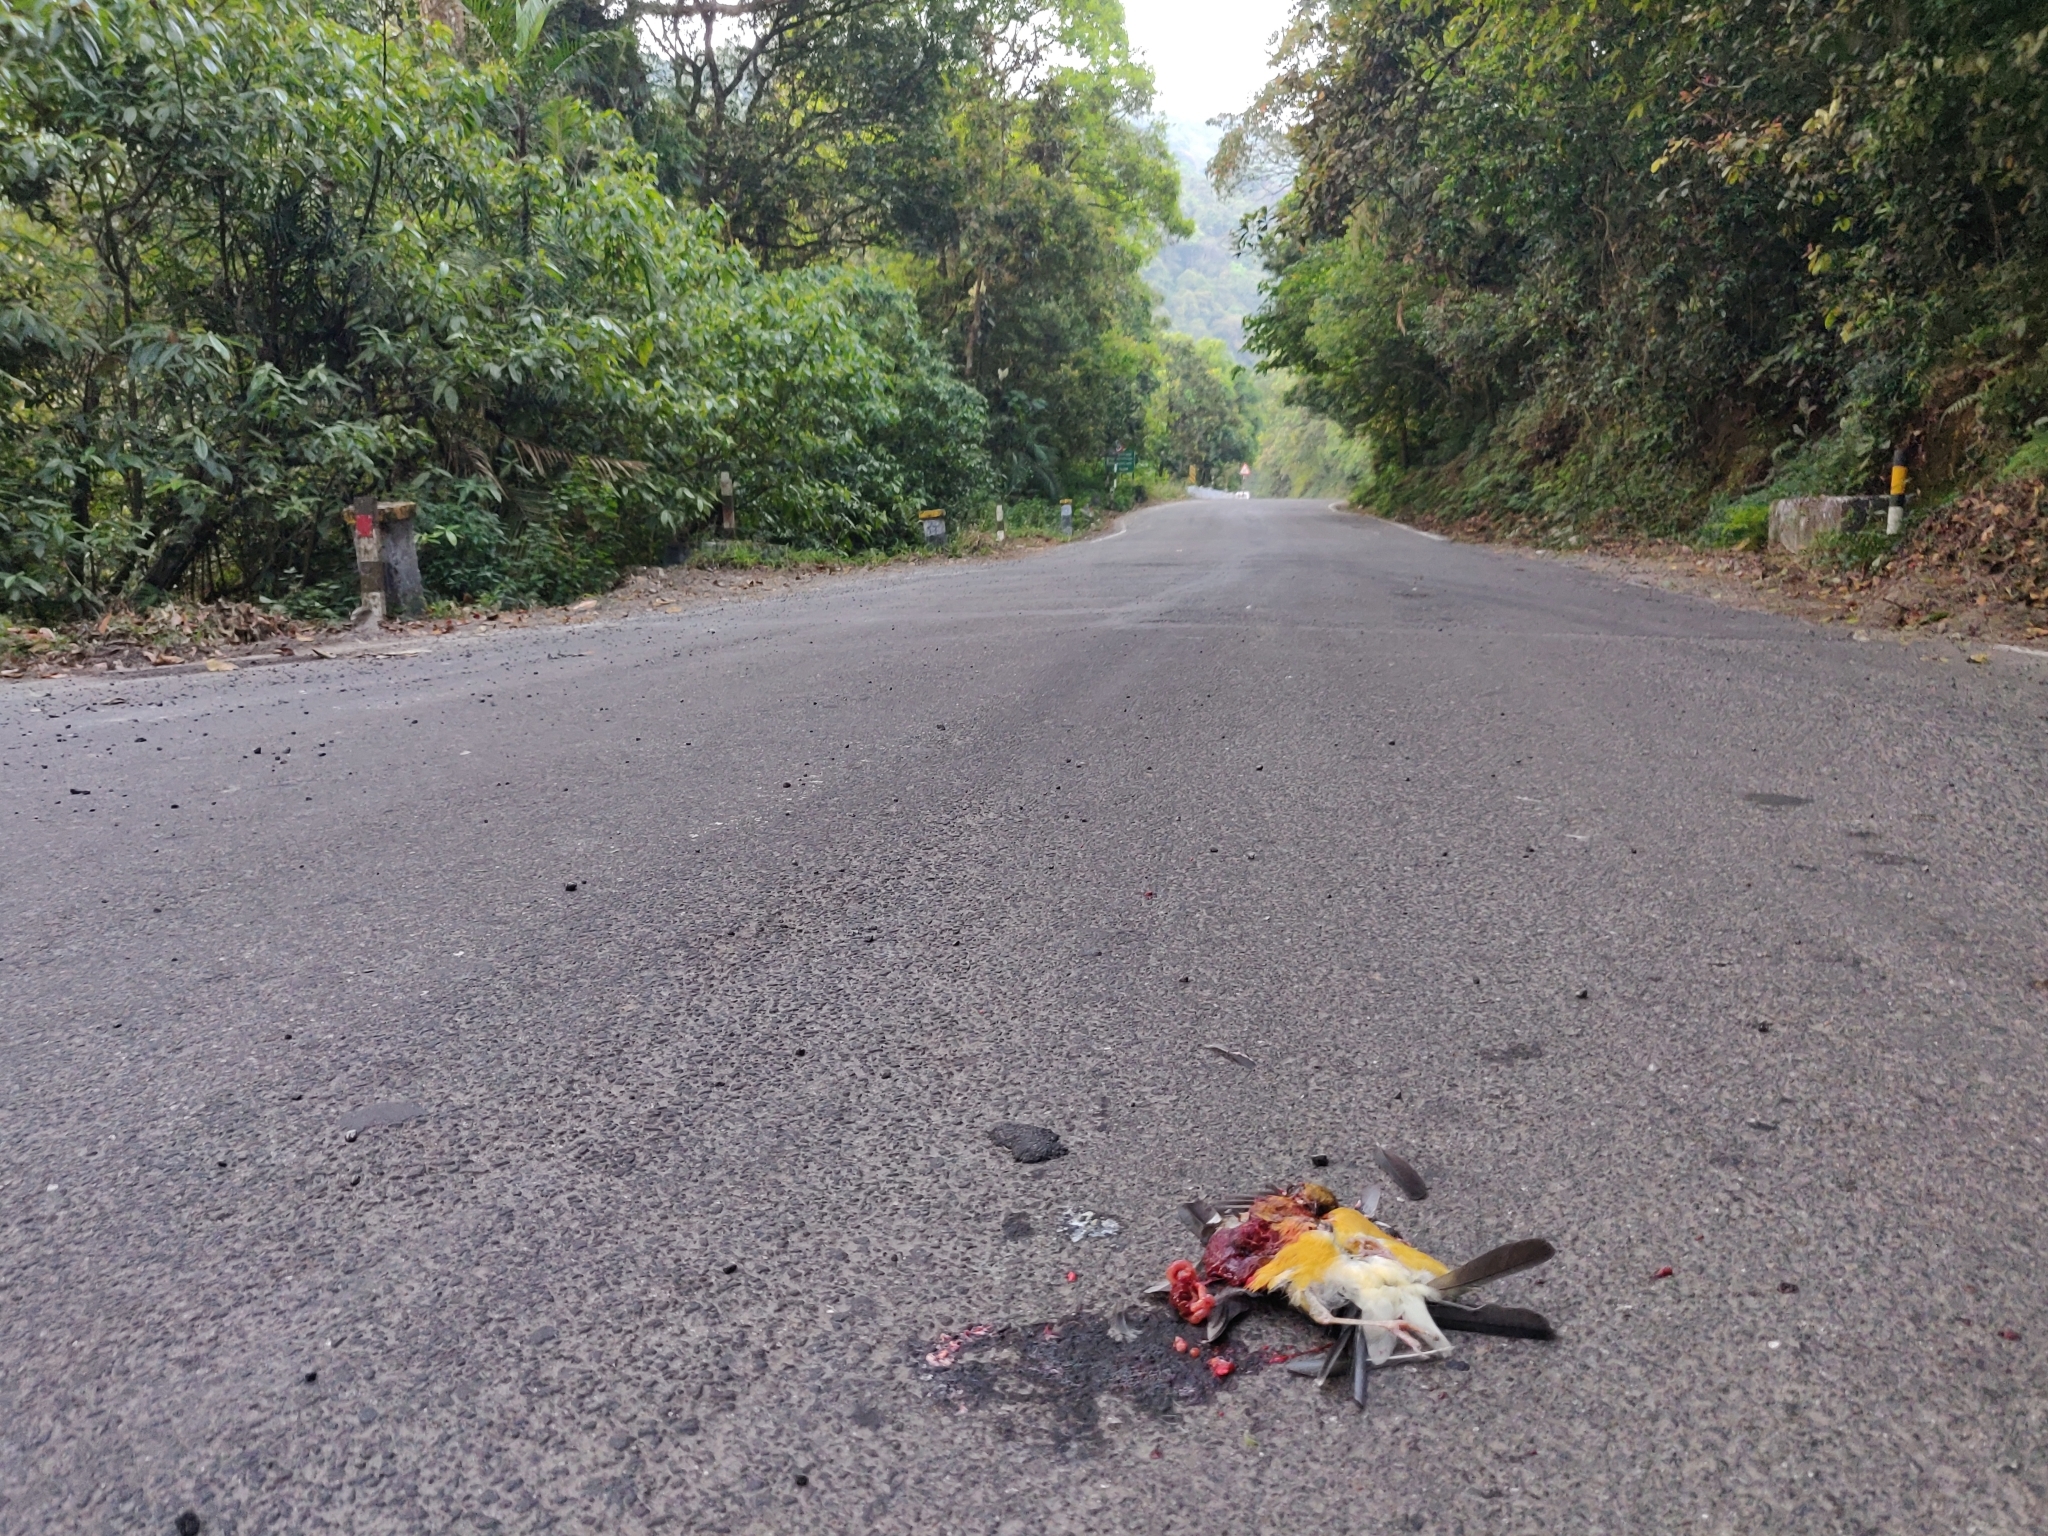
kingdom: Animalia
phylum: Chordata
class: Aves
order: Passeriformes
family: Turdidae
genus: Geokichla
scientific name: Geokichla citrina
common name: Orange-headed thrush
